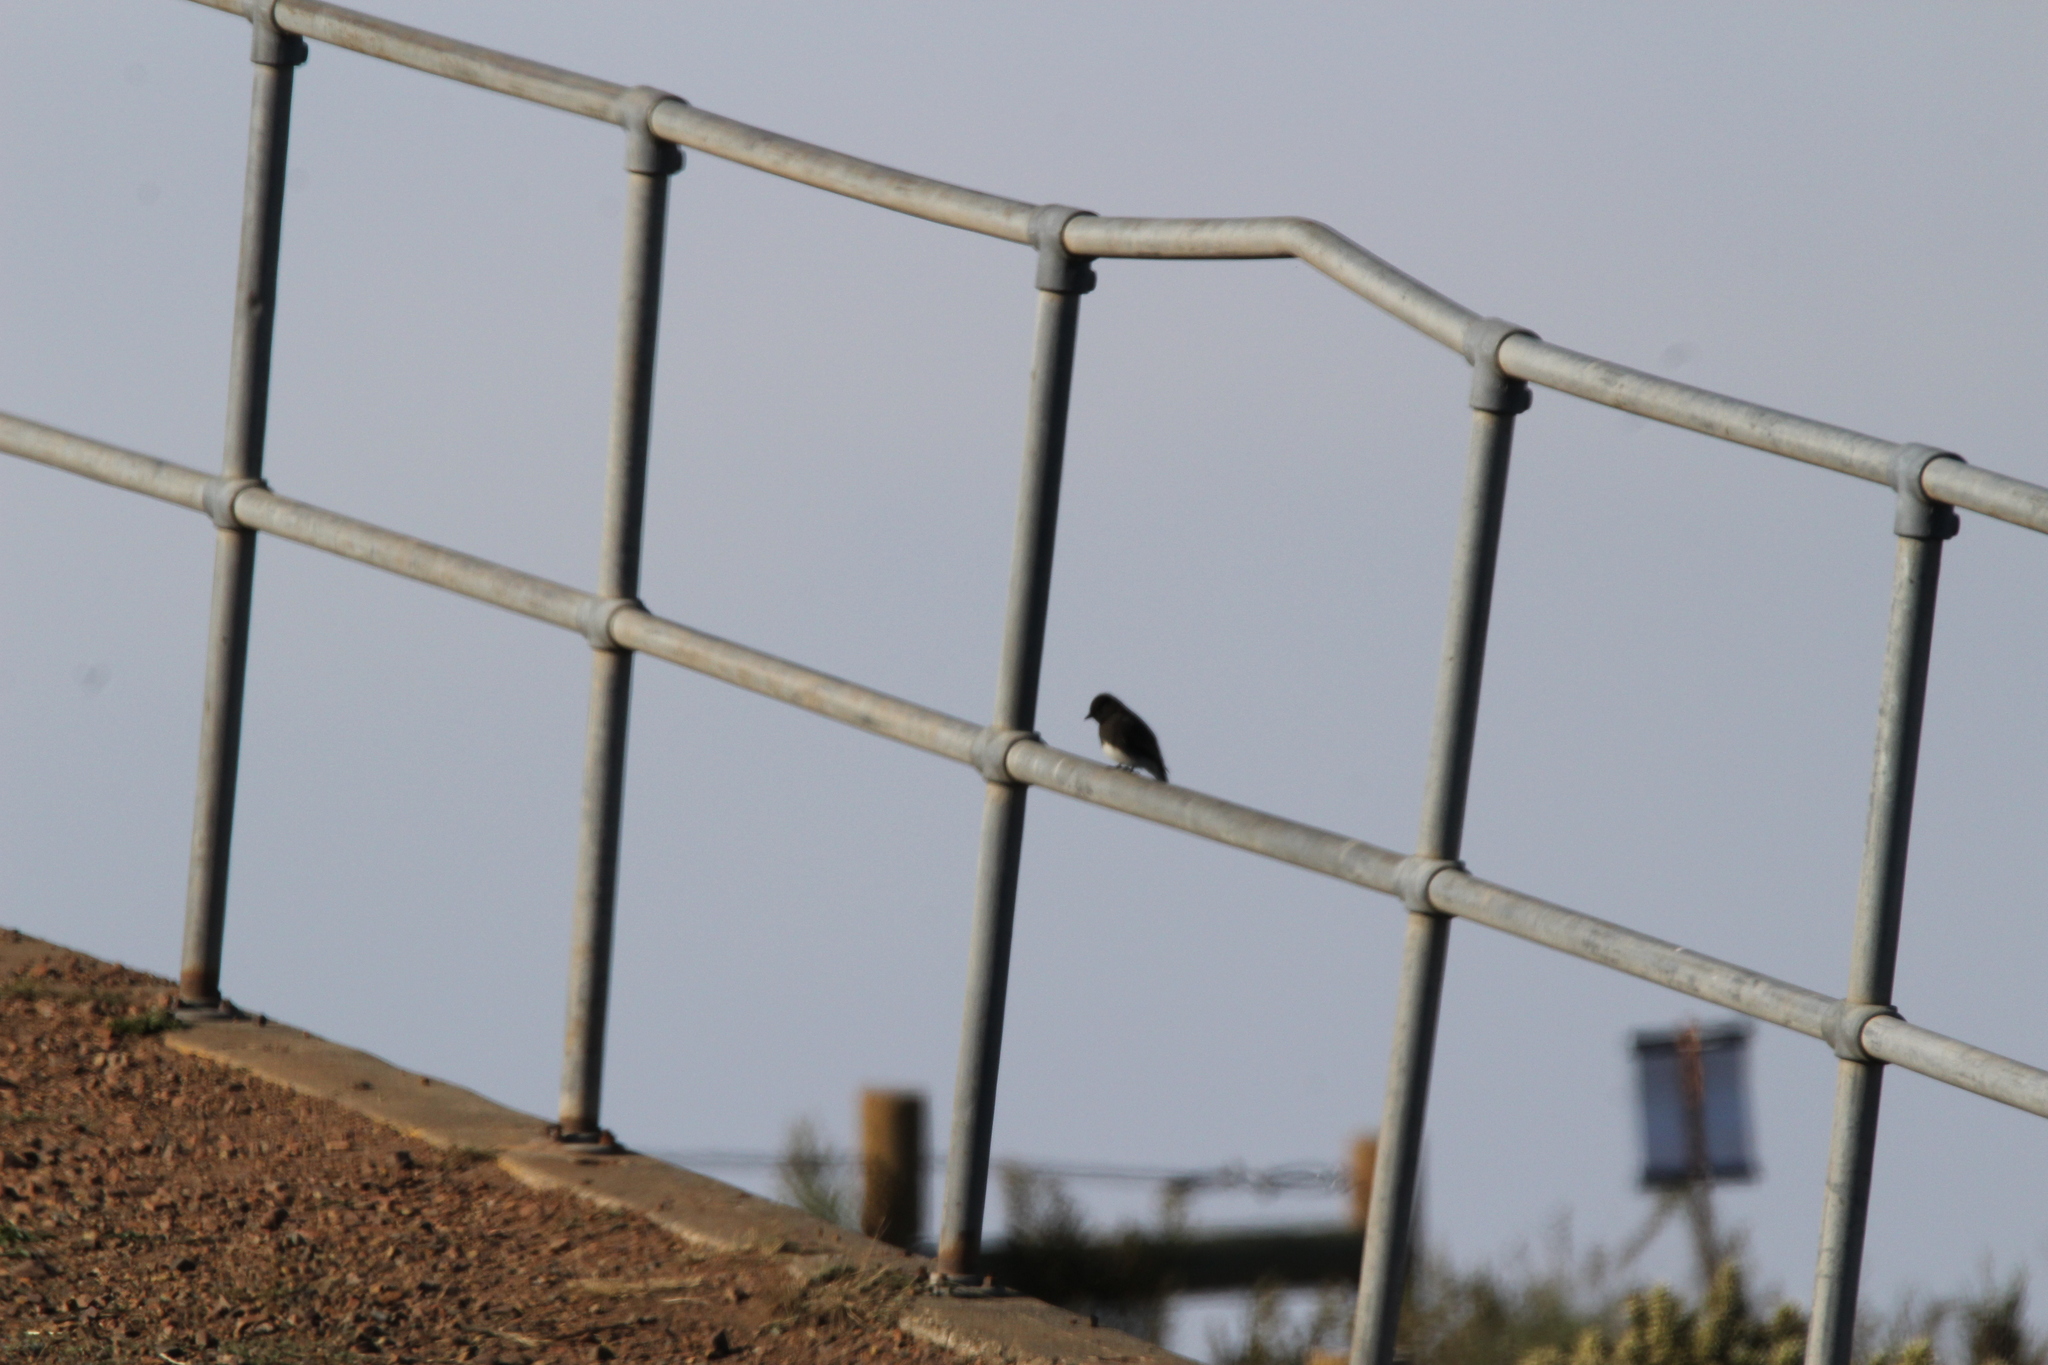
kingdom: Animalia
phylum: Chordata
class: Aves
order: Passeriformes
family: Tyrannidae
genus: Sayornis
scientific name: Sayornis nigricans
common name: Black phoebe
